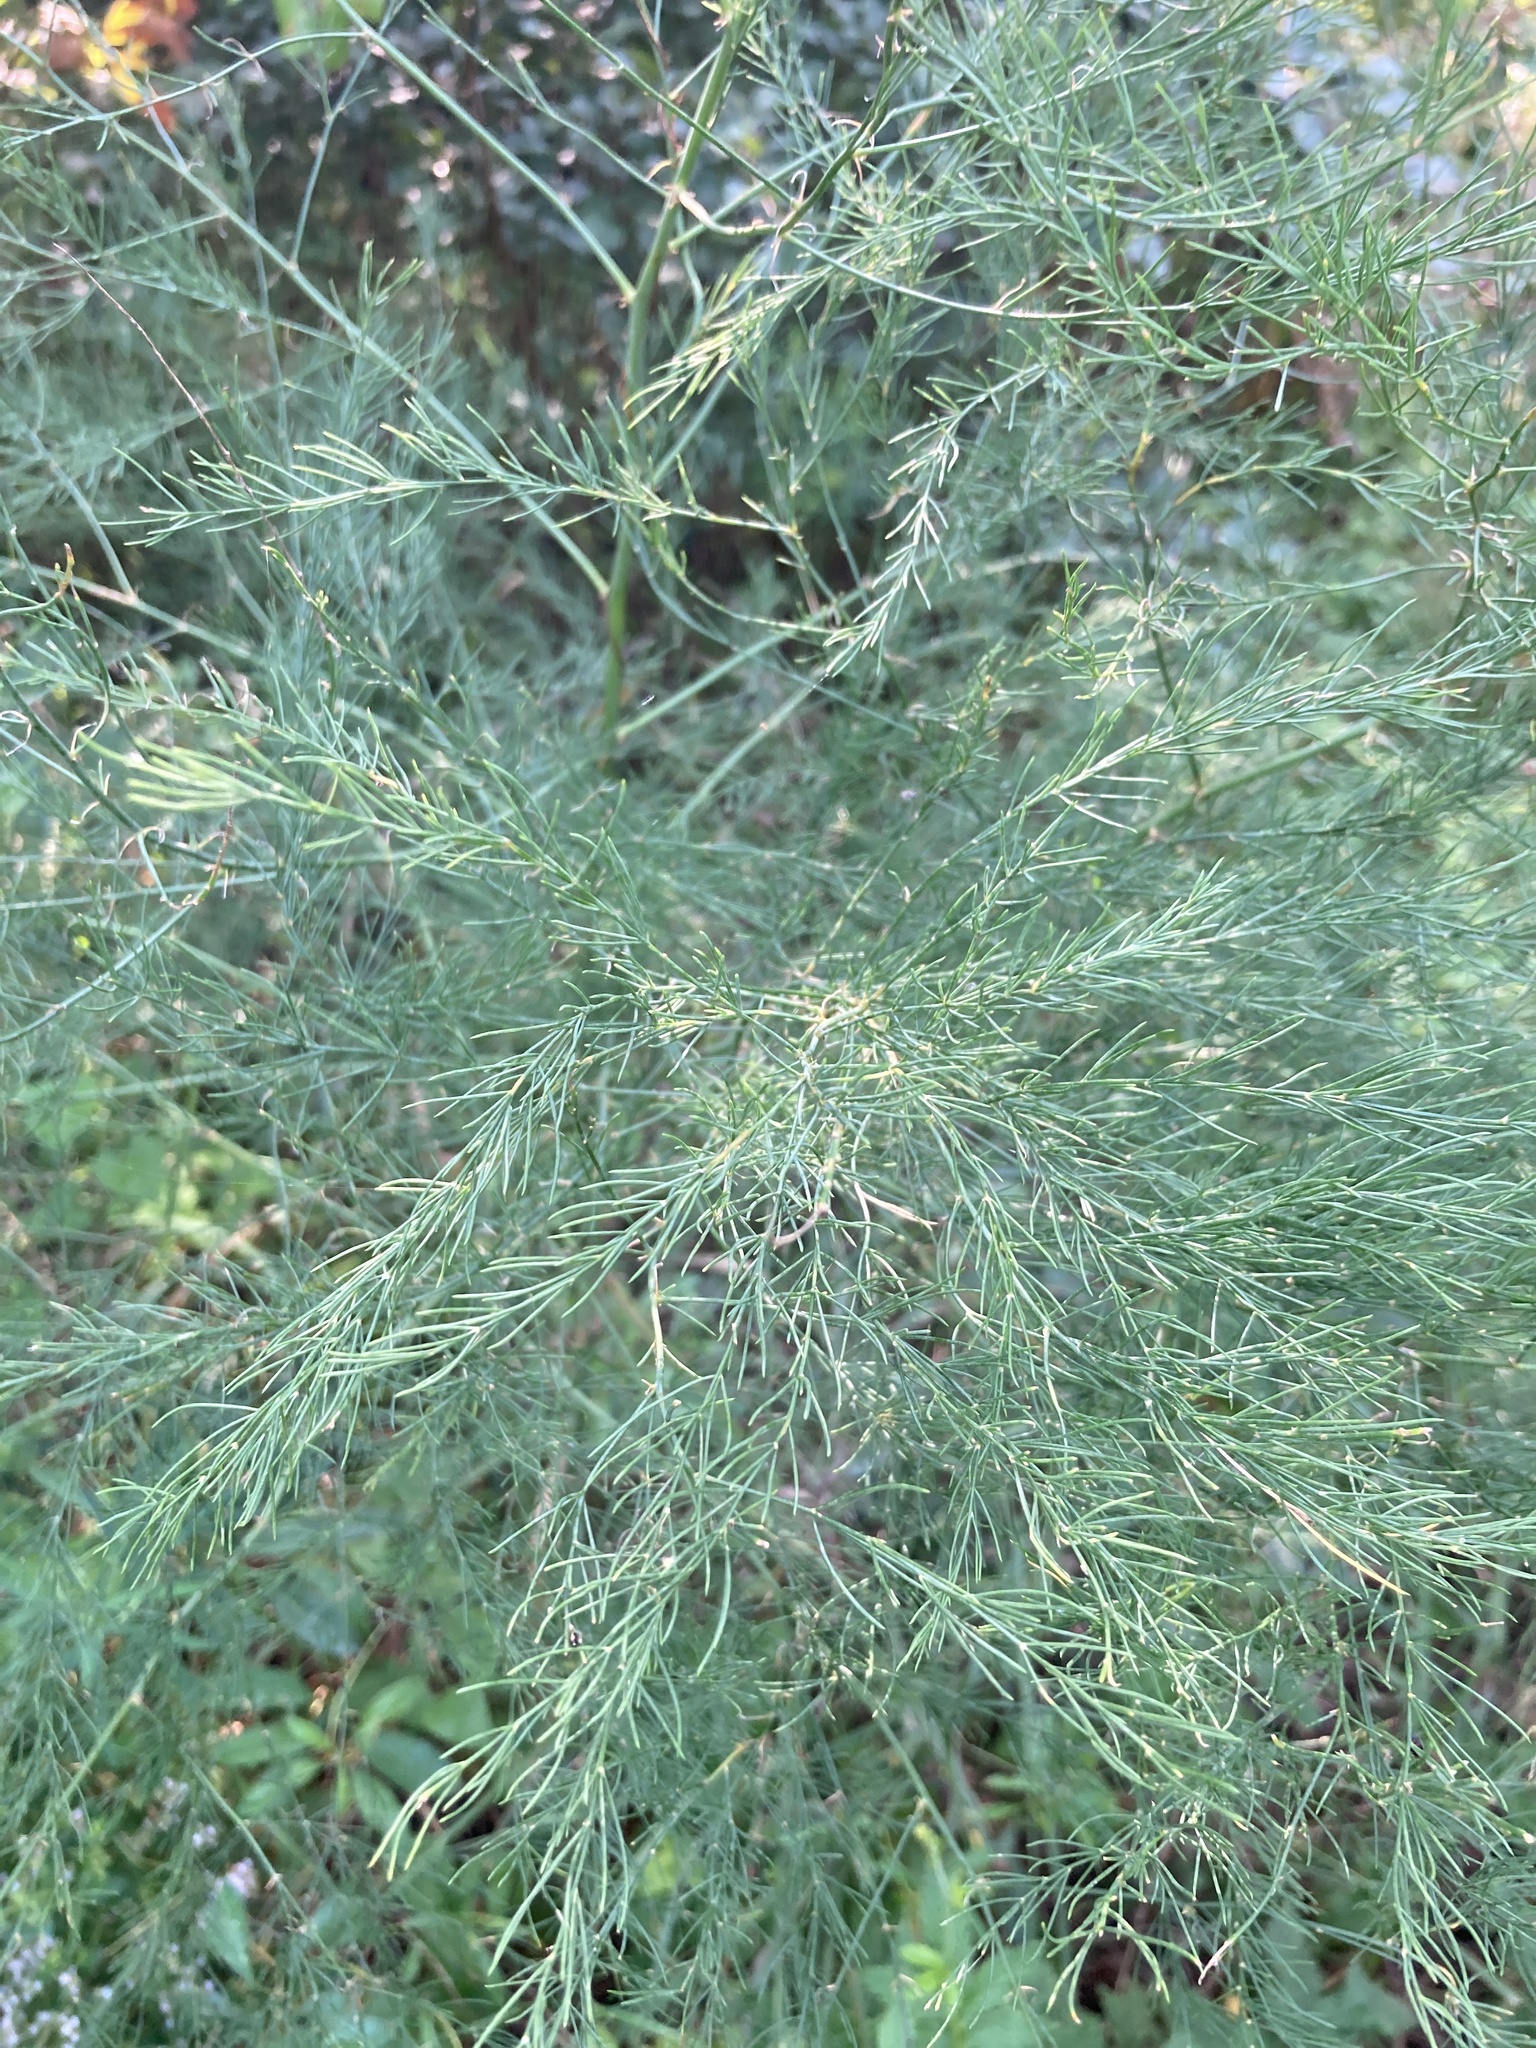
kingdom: Plantae
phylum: Tracheophyta
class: Liliopsida
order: Asparagales
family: Asparagaceae
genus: Asparagus
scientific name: Asparagus officinalis
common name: Garden asparagus
